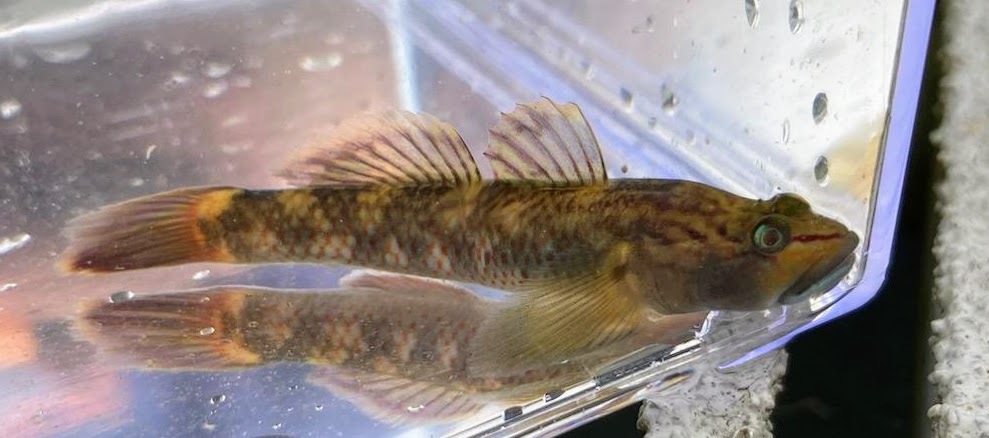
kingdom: Animalia
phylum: Chordata
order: Perciformes
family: Gobiidae
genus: Rhinogobius
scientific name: Rhinogobius brunneus
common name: Amur goby
